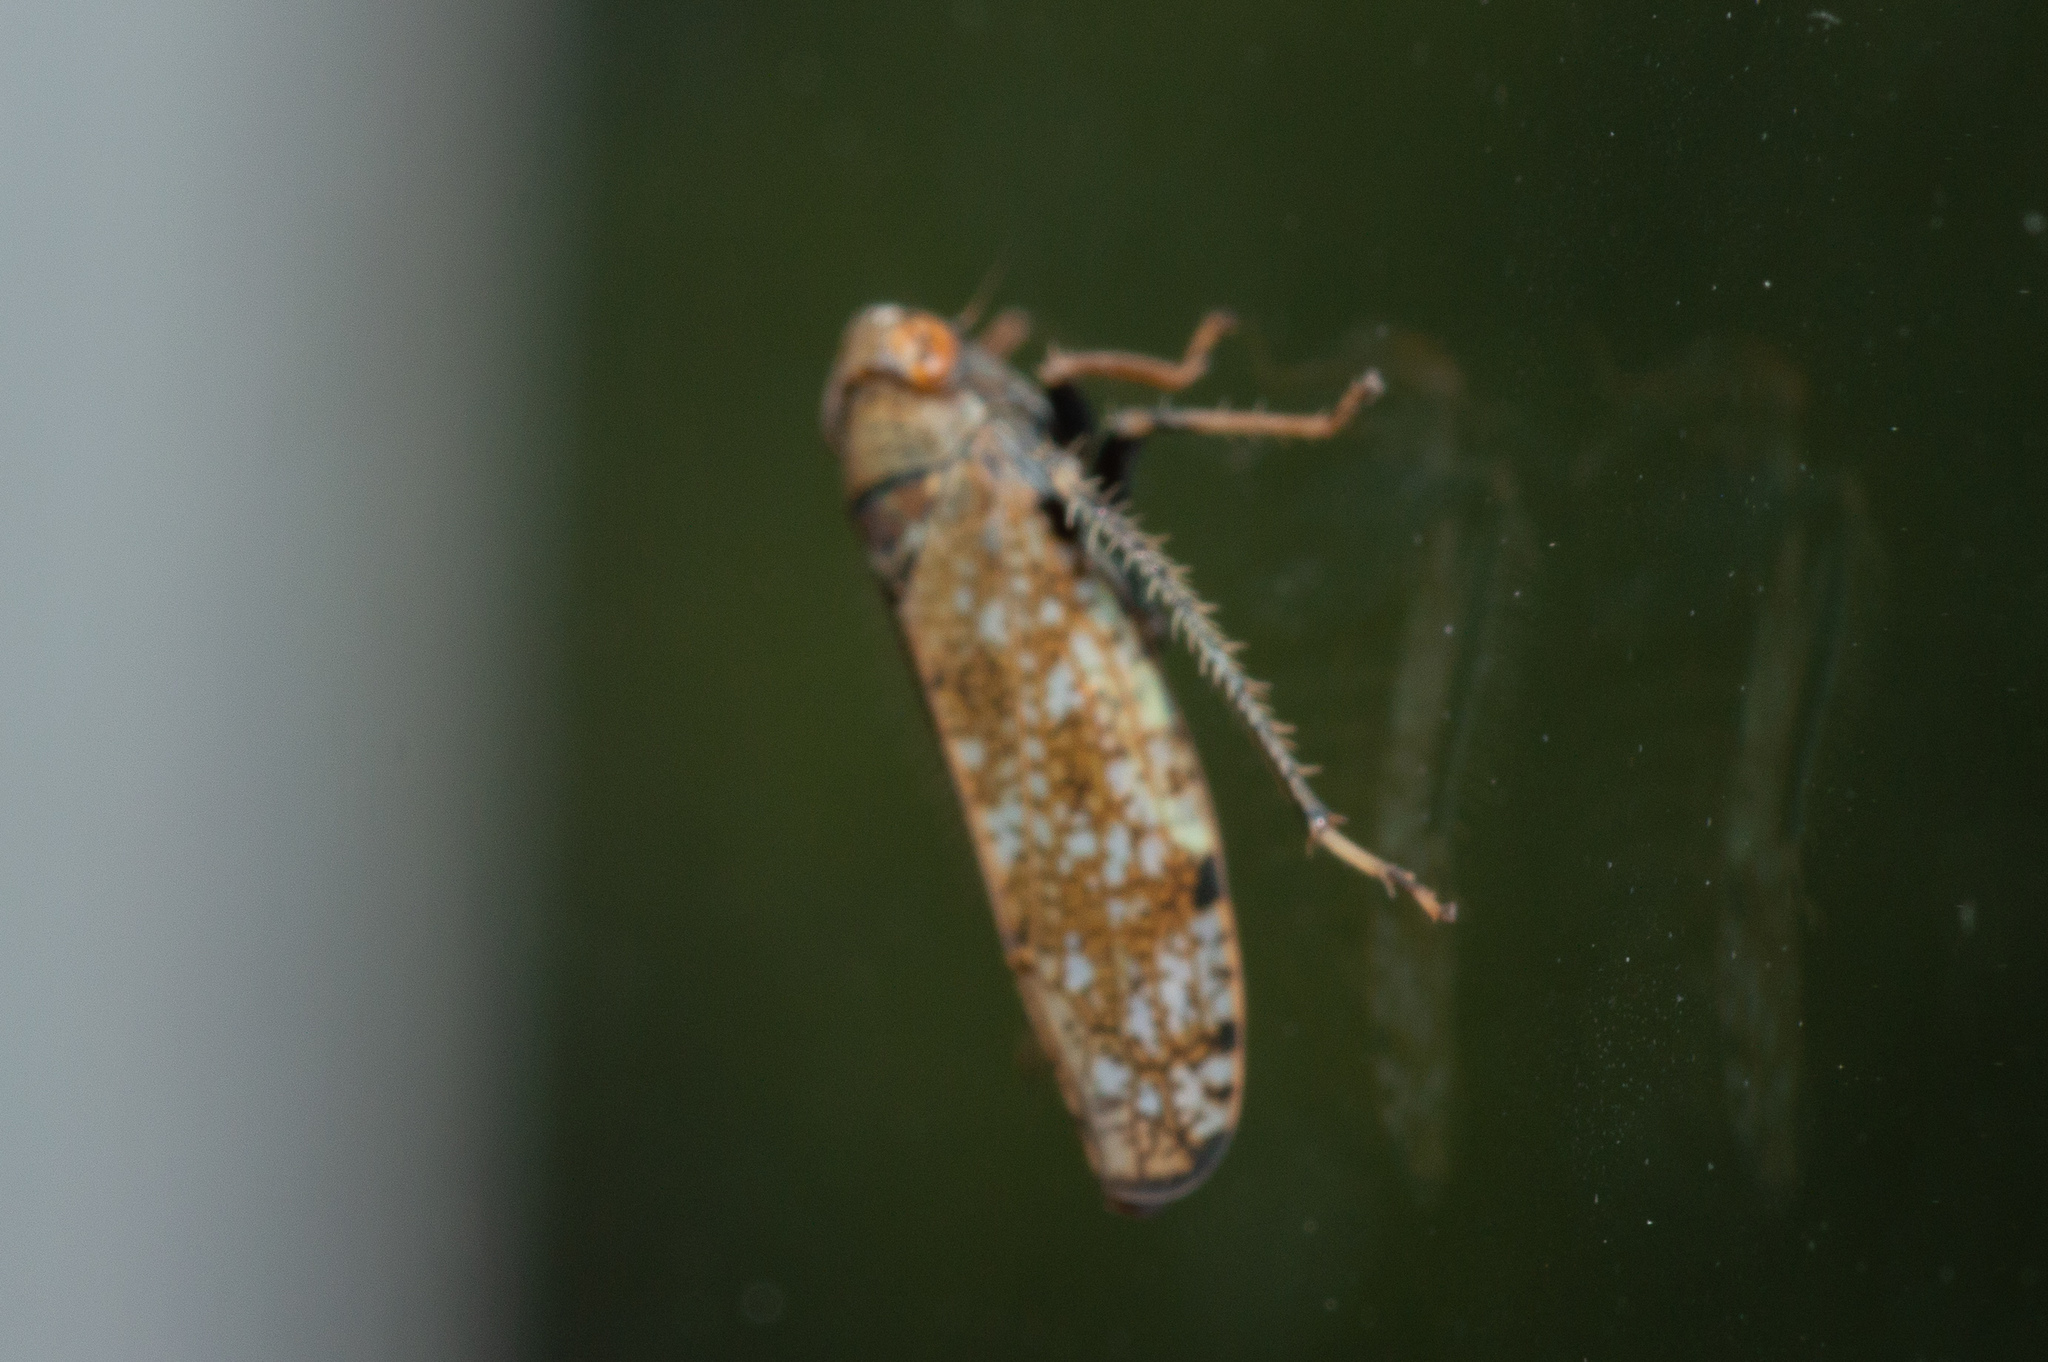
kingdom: Animalia
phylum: Arthropoda
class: Insecta
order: Hemiptera
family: Cicadellidae
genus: Orientus
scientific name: Orientus ishidae
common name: Japanese leafhopper
